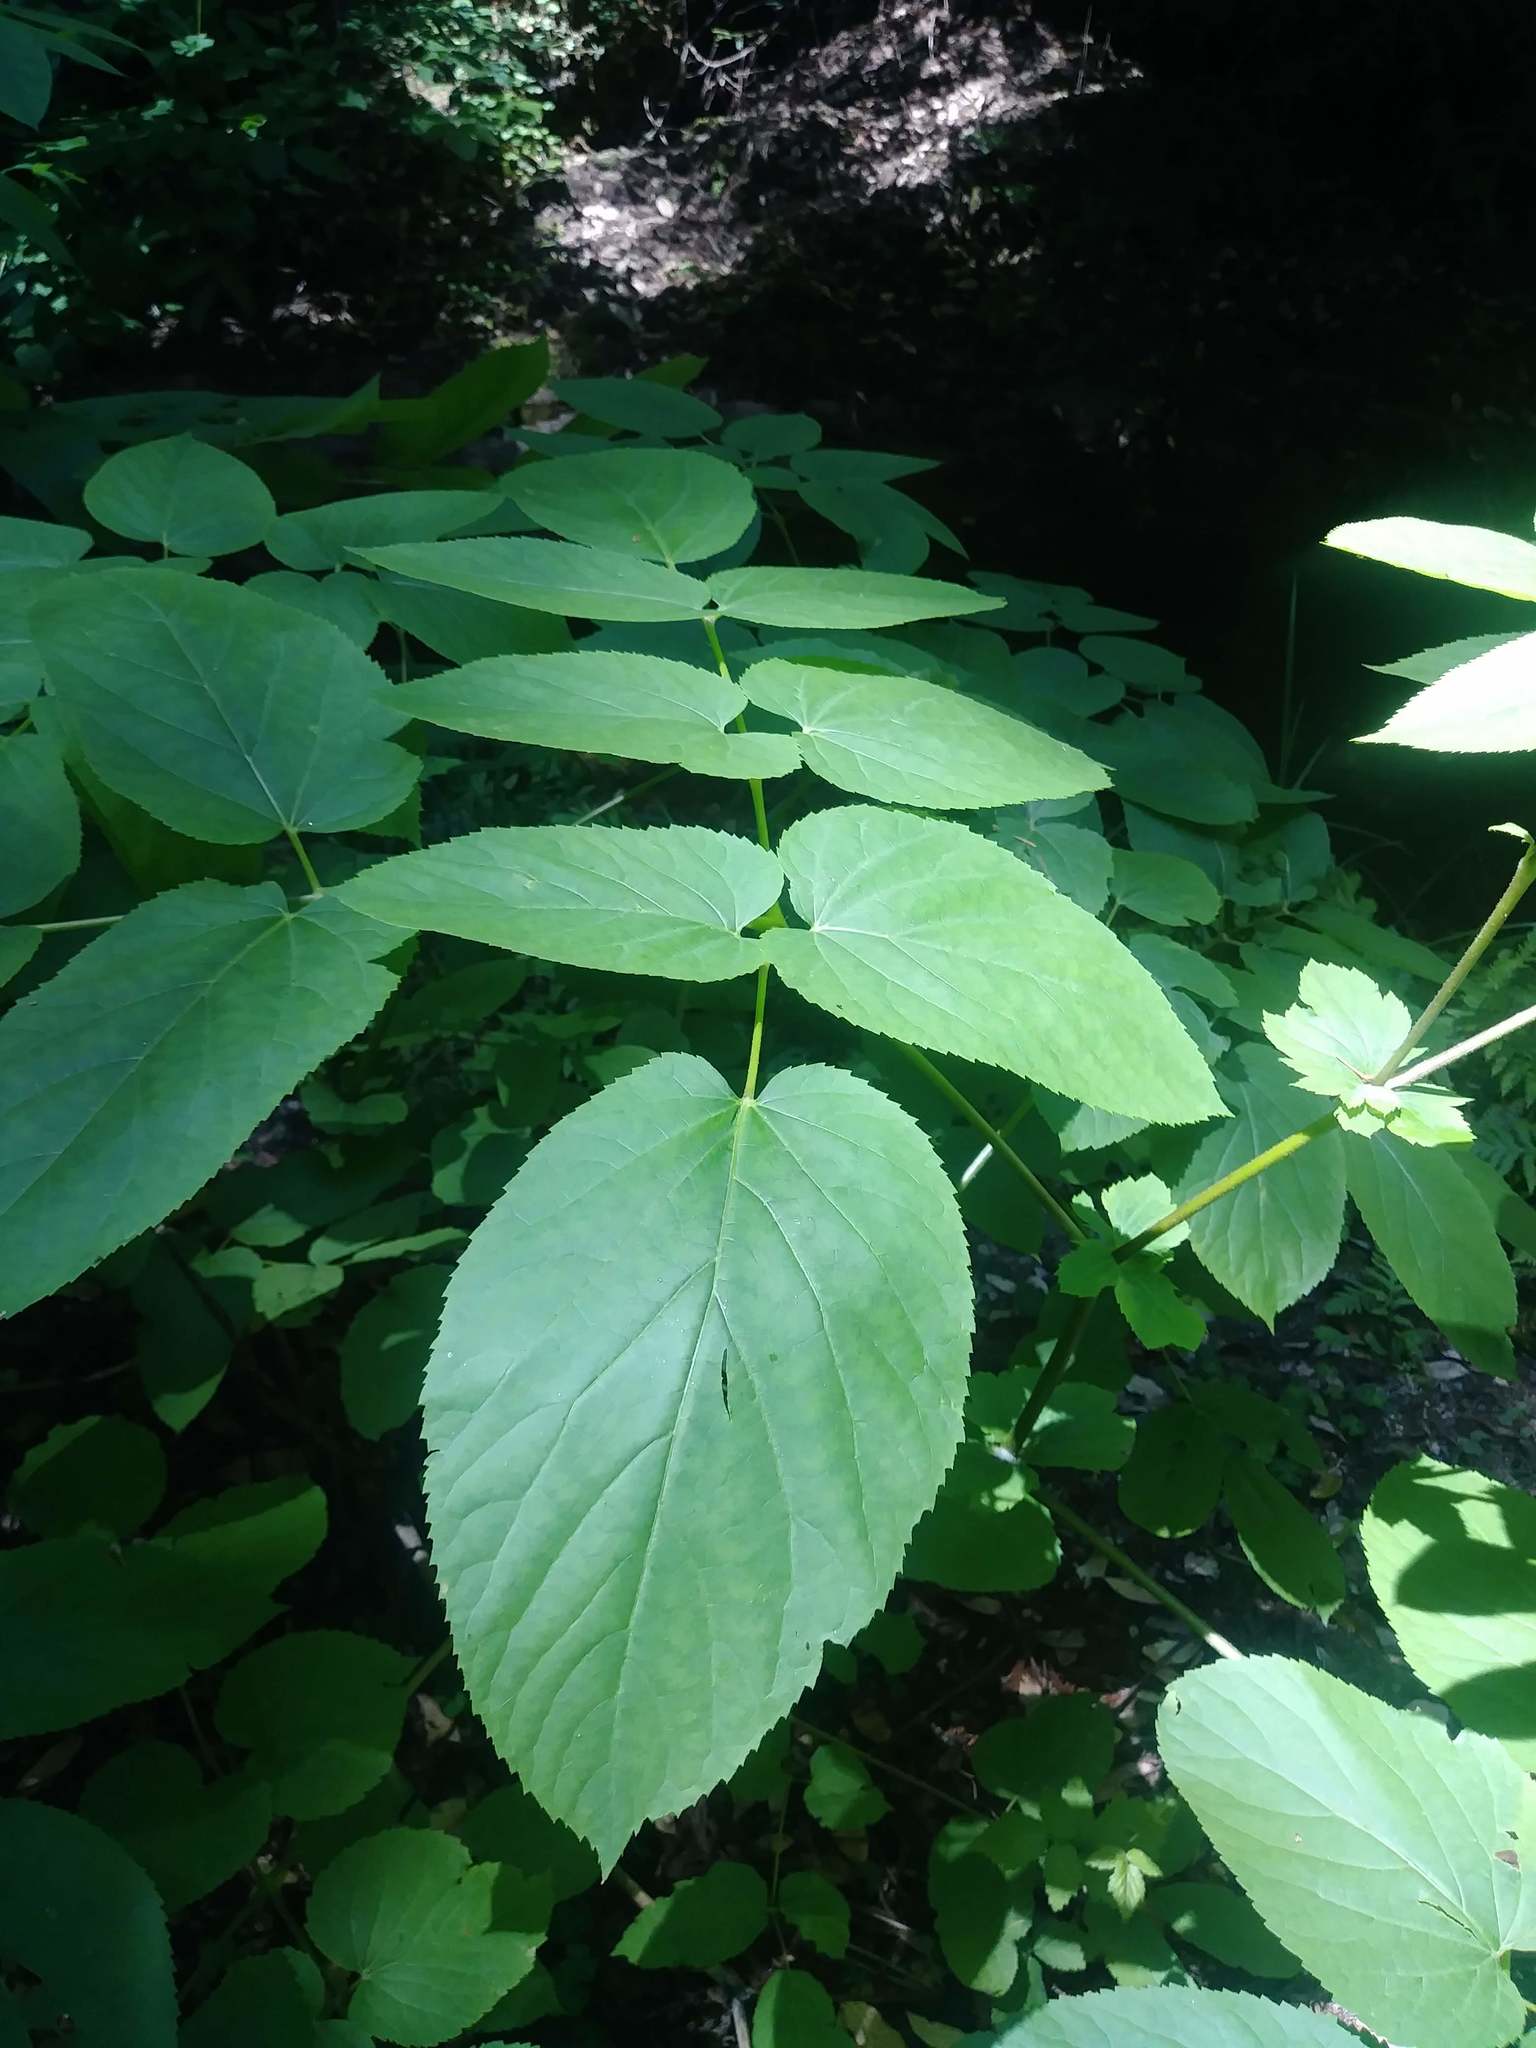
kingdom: Plantae
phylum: Tracheophyta
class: Magnoliopsida
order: Apiales
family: Araliaceae
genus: Aralia
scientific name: Aralia californica
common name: California-ginseng
